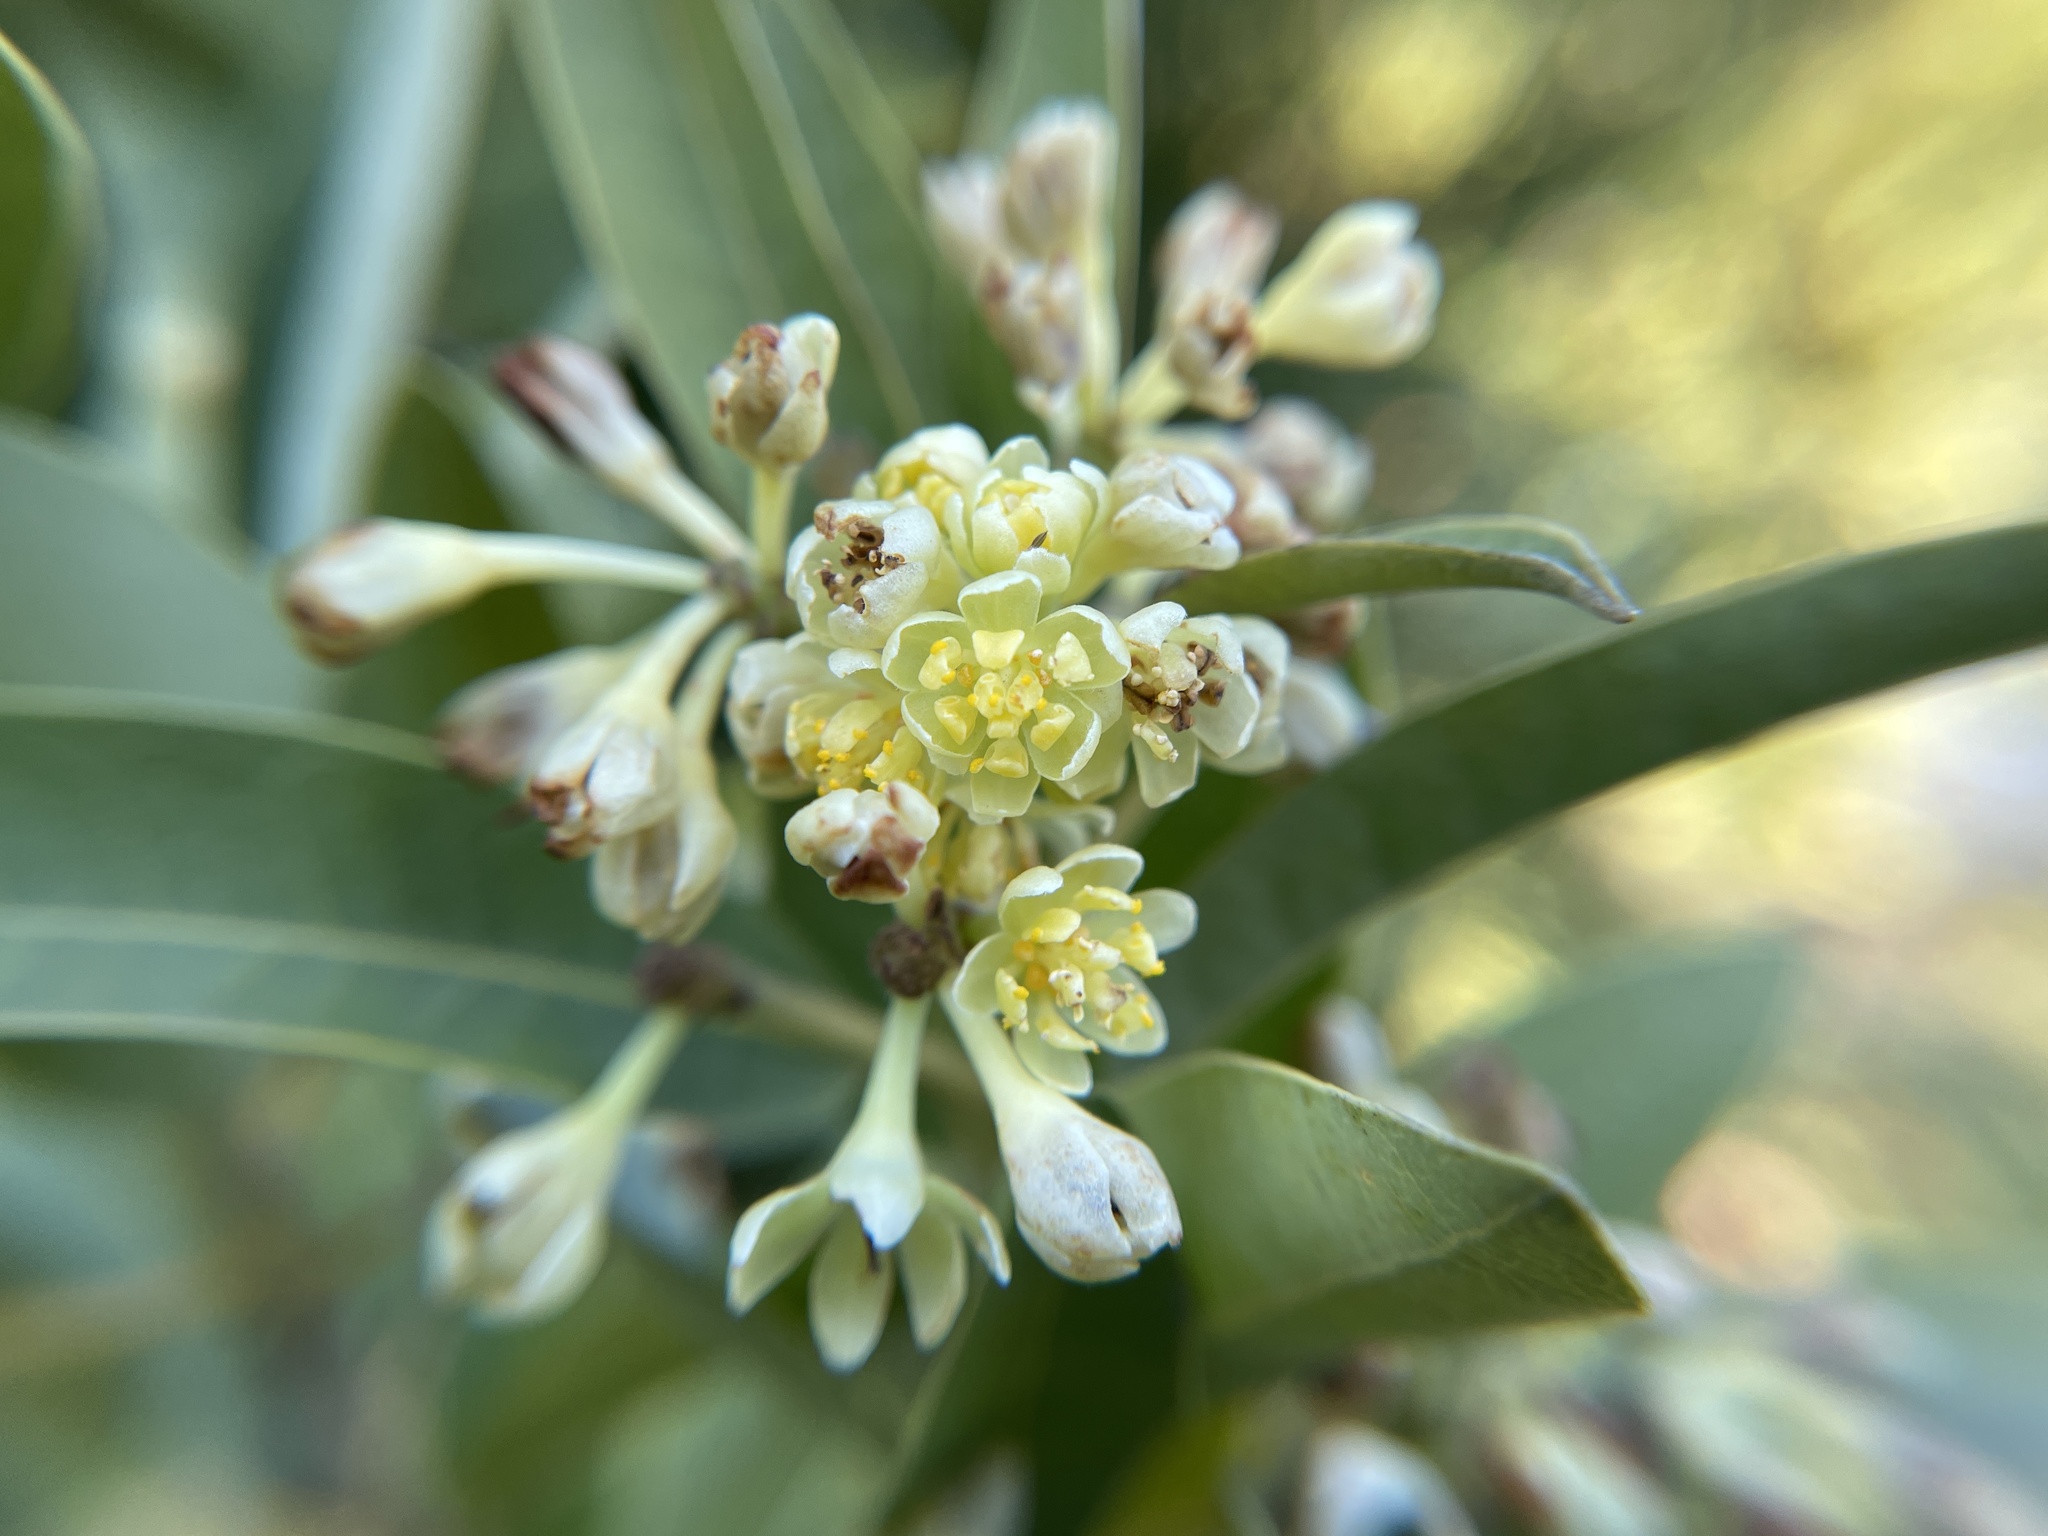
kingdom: Plantae
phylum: Tracheophyta
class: Magnoliopsida
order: Laurales
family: Lauraceae
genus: Umbellularia
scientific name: Umbellularia californica
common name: California bay
